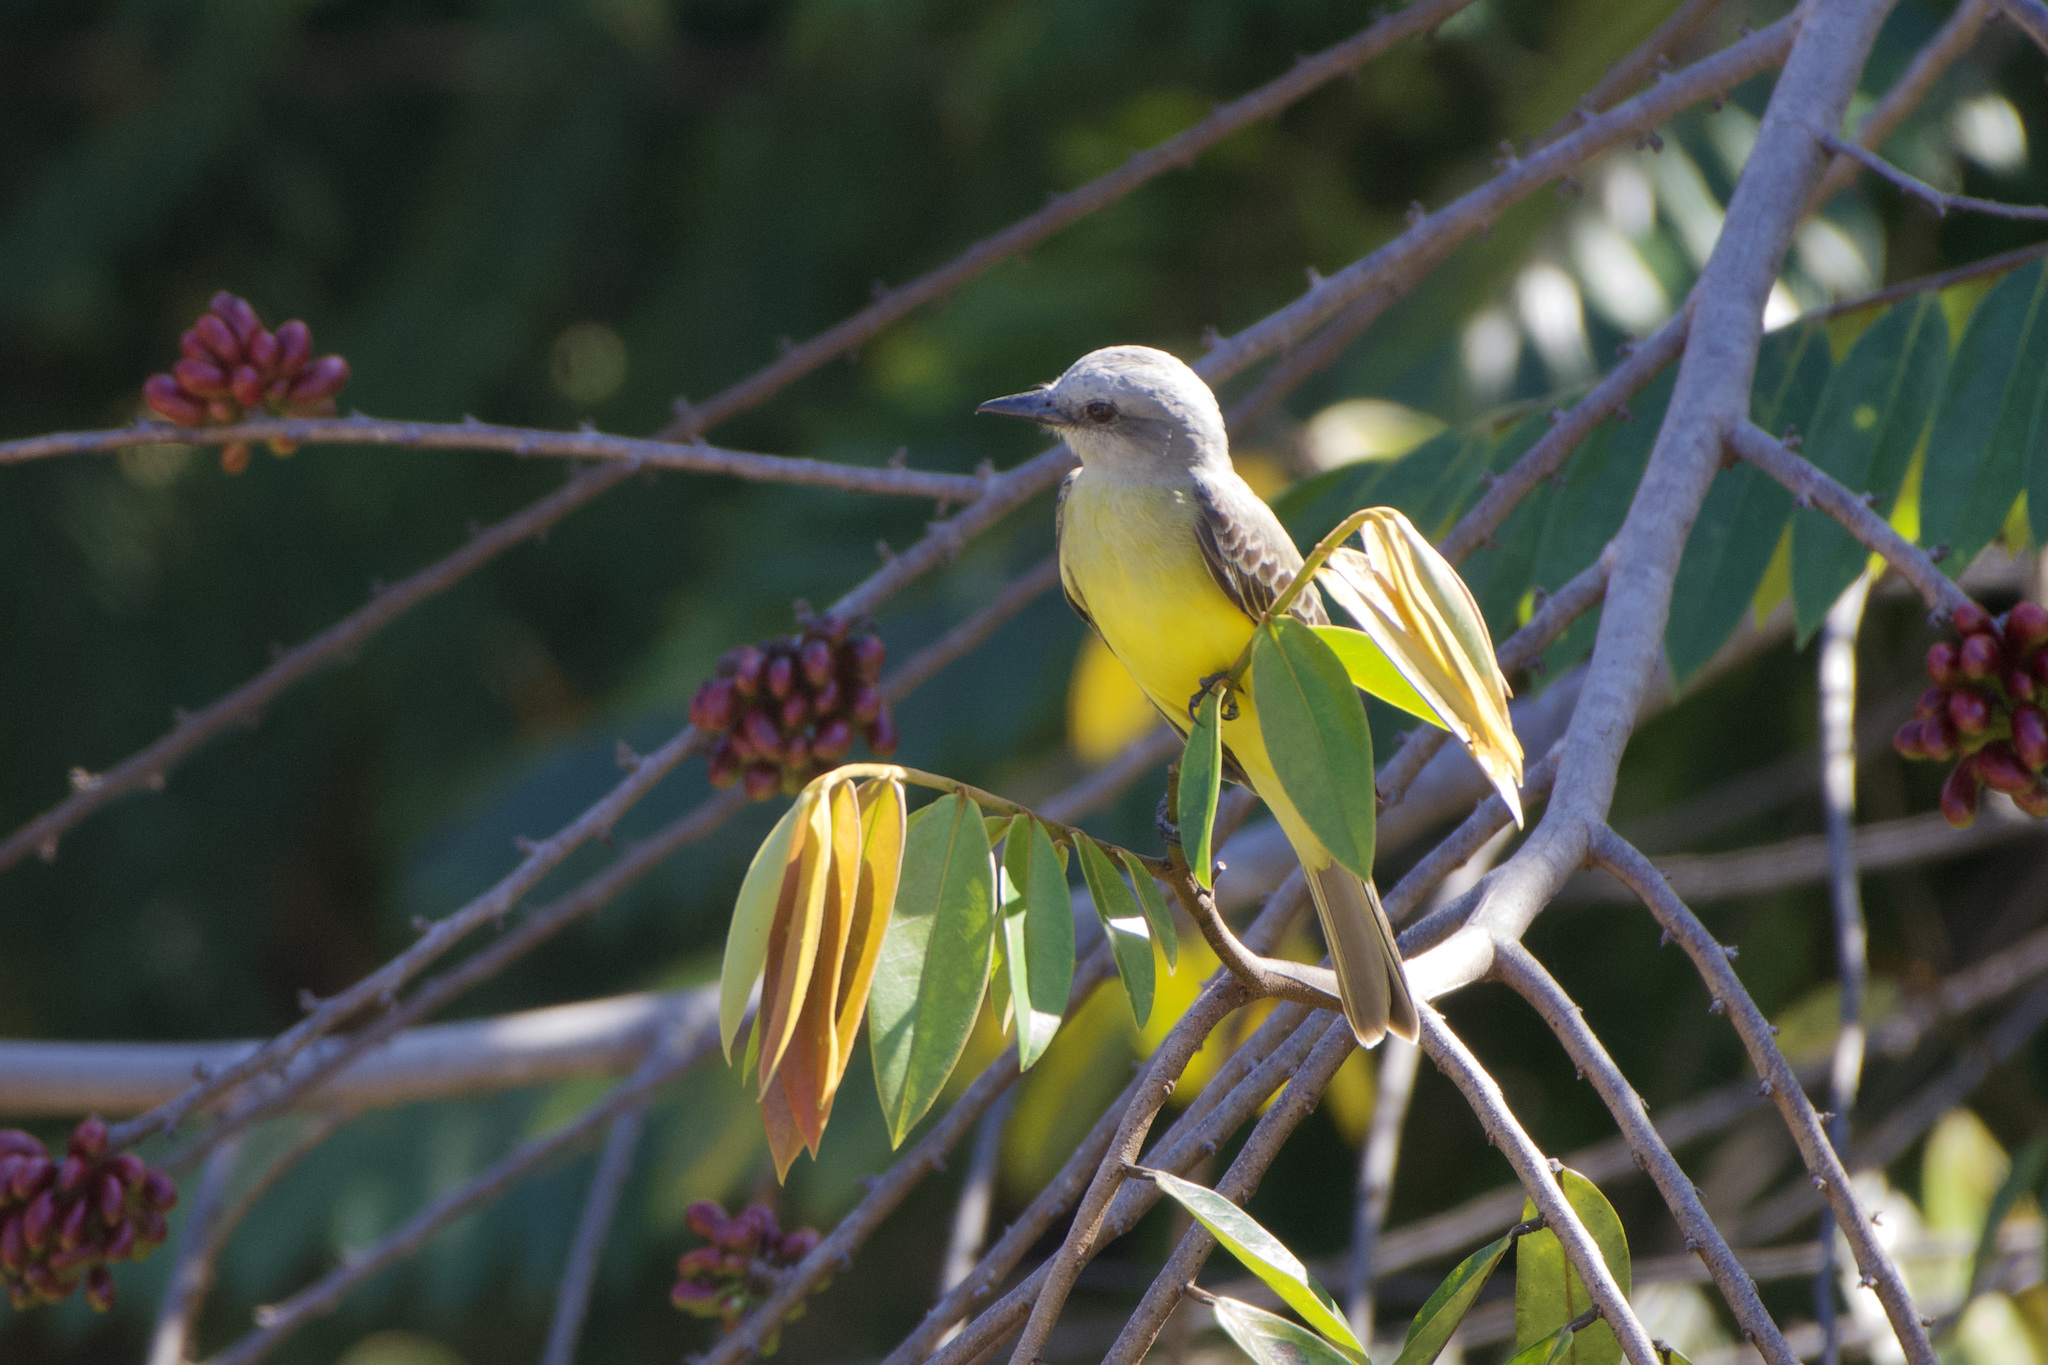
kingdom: Animalia
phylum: Chordata
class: Aves
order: Passeriformes
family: Tyrannidae
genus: Tyrannus
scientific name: Tyrannus melancholicus
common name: Tropical kingbird
